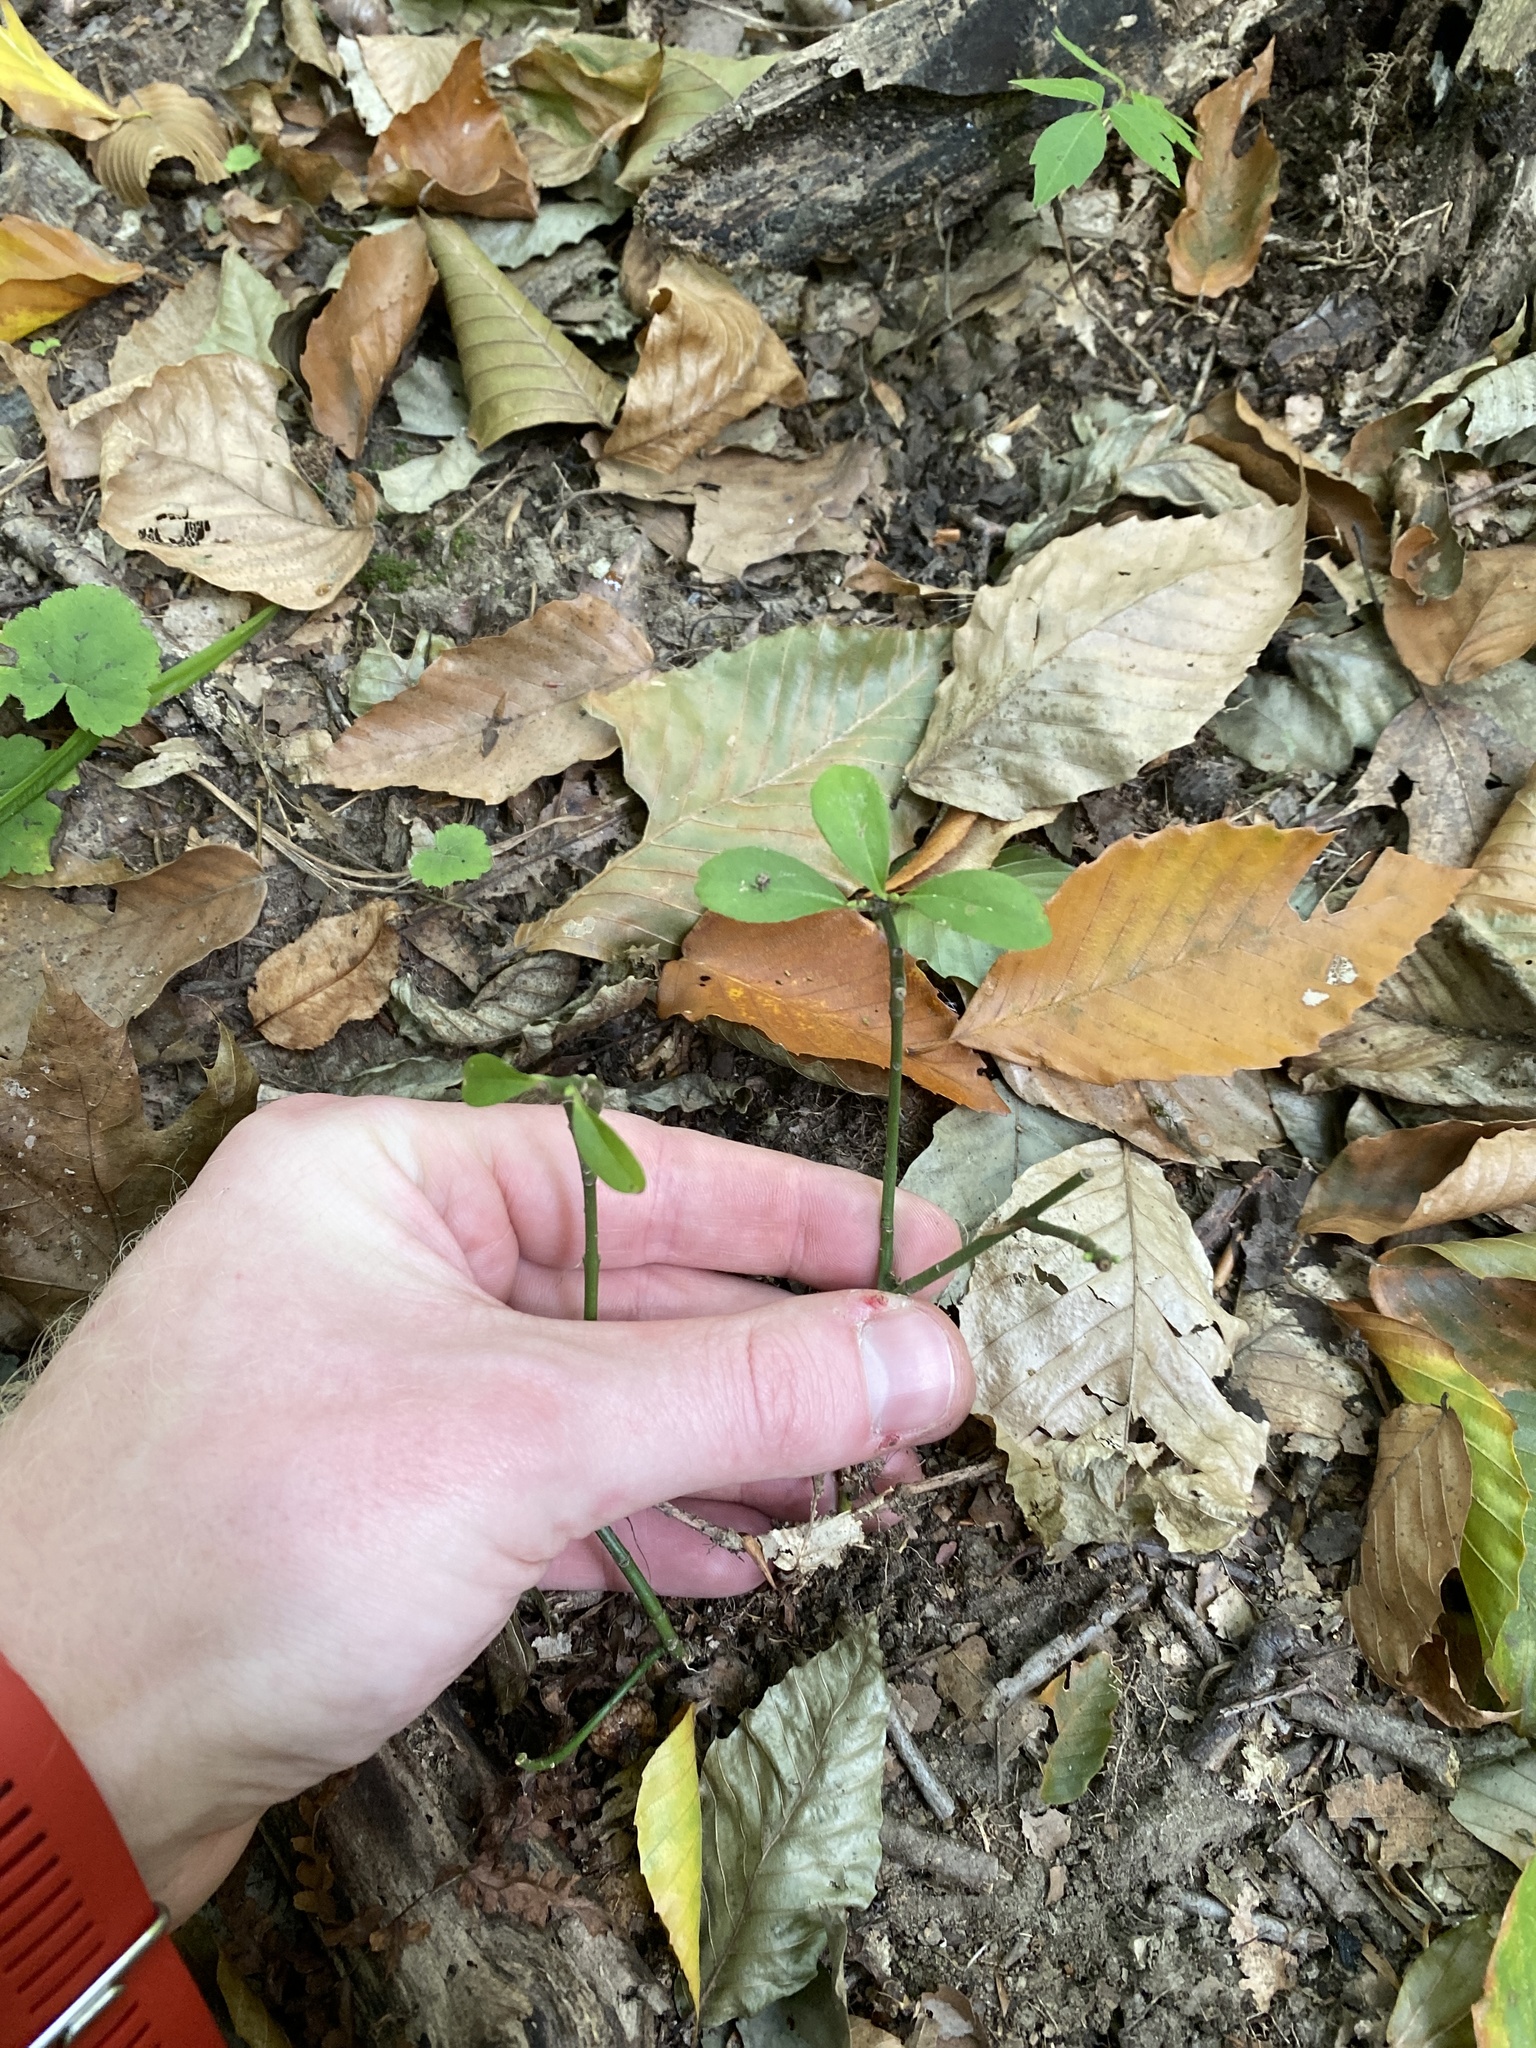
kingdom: Plantae
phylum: Tracheophyta
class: Magnoliopsida
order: Celastrales
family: Celastraceae
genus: Euonymus
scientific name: Euonymus obovatus
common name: Running strawberry-bush
